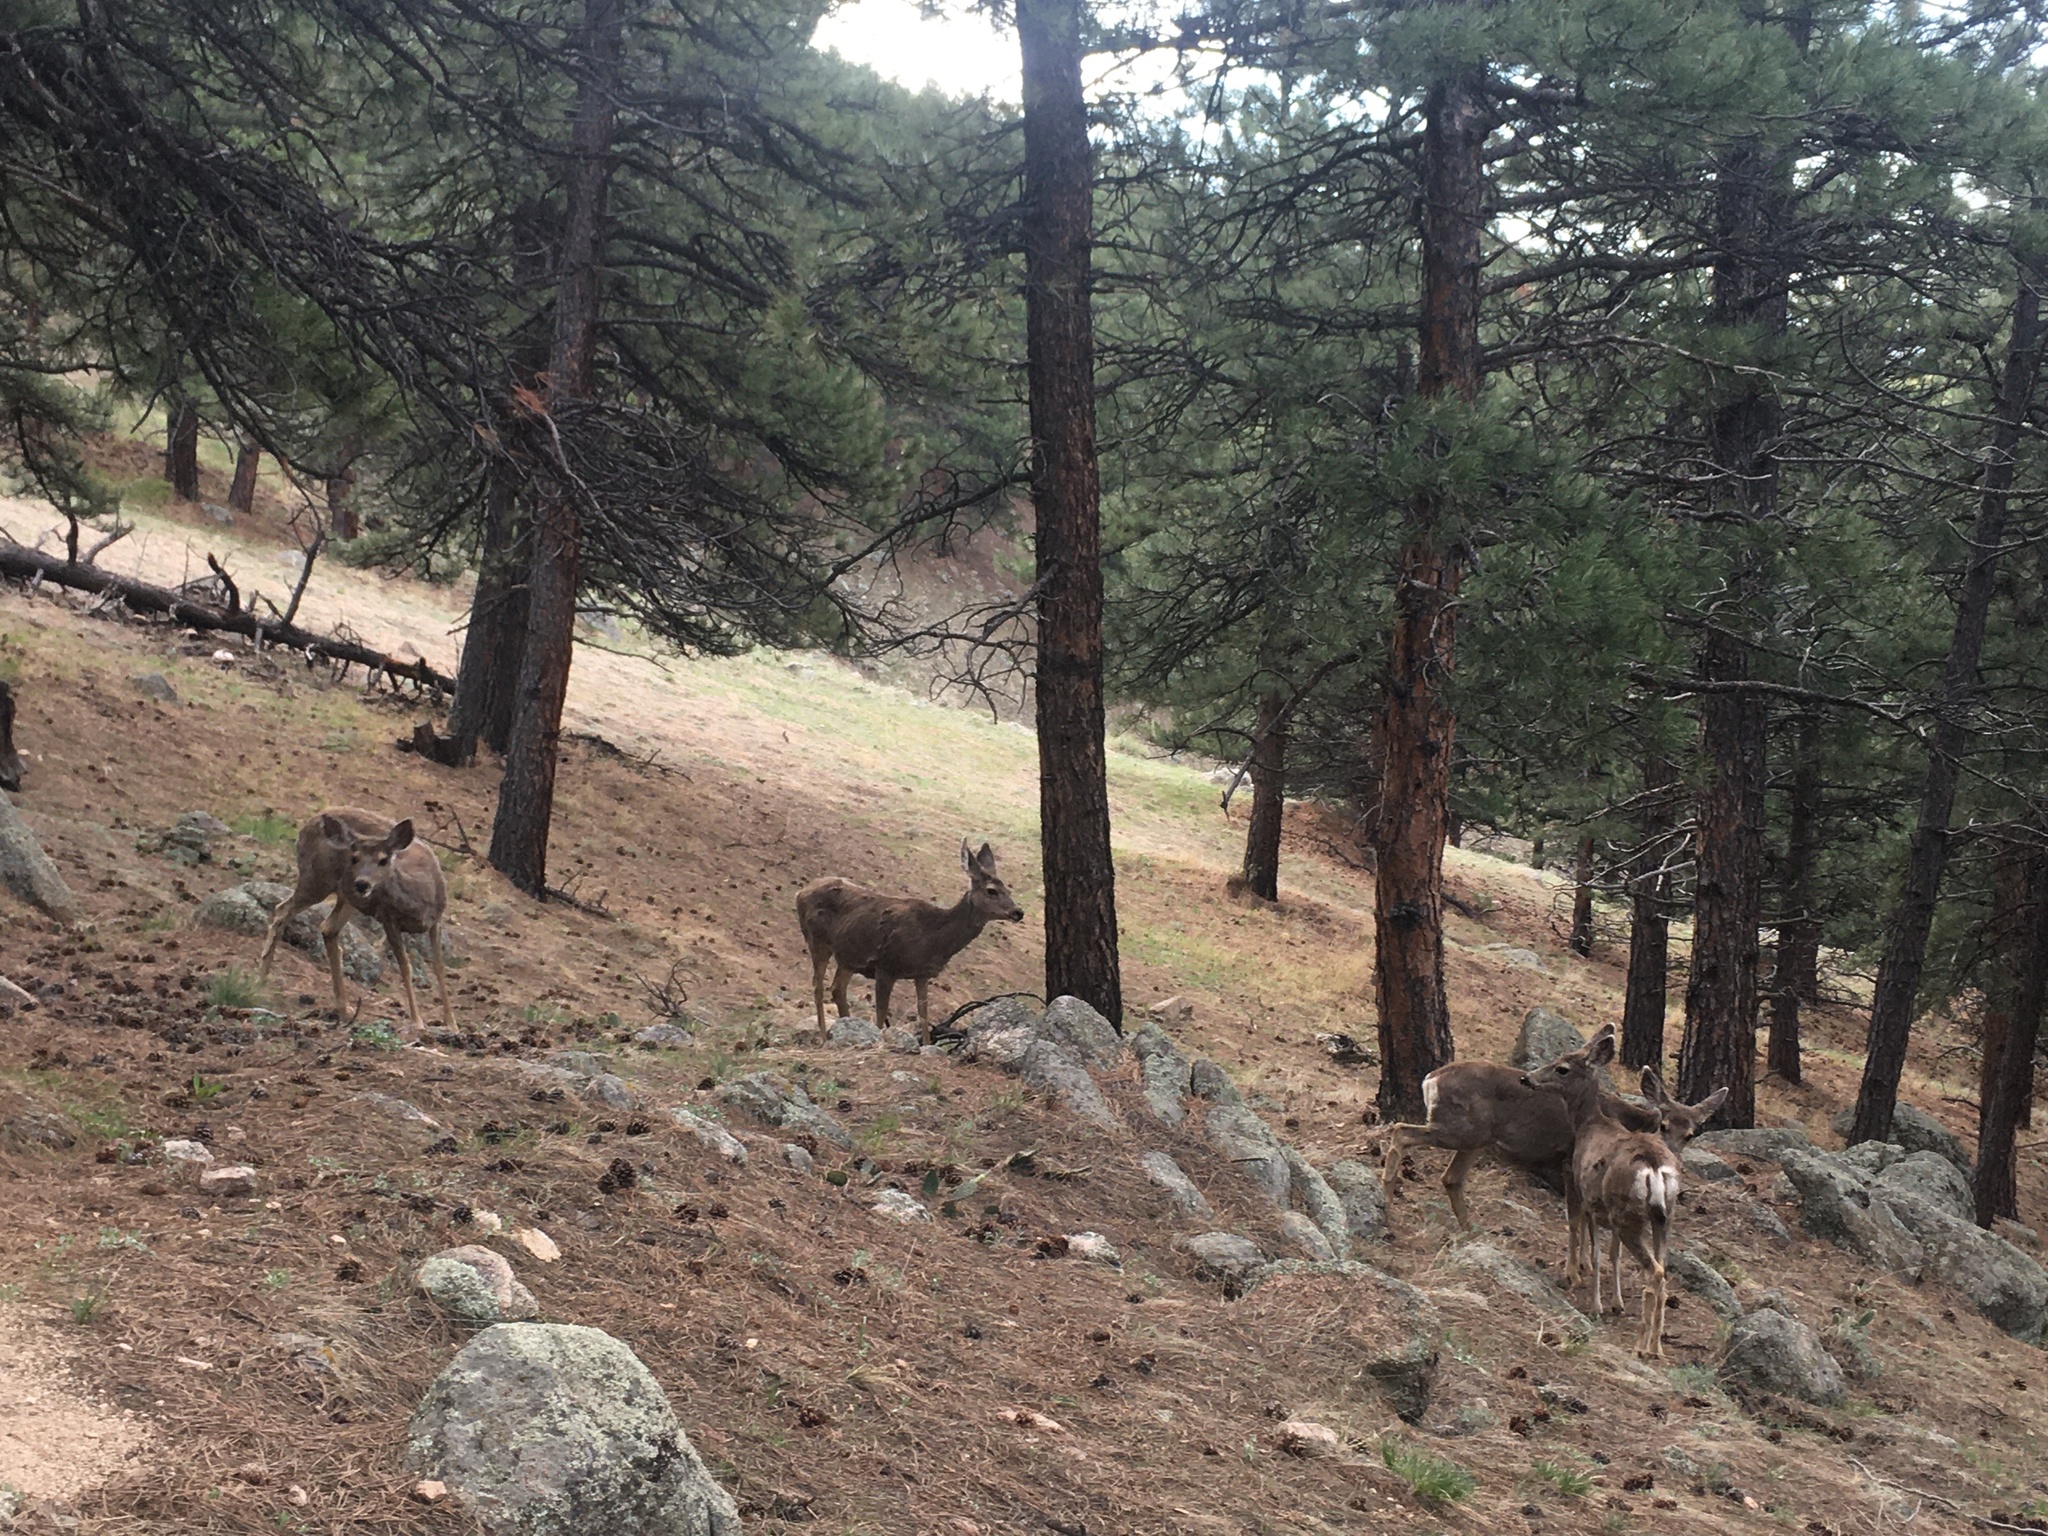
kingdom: Animalia
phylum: Chordata
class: Mammalia
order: Artiodactyla
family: Cervidae
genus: Odocoileus
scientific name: Odocoileus hemionus
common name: Mule deer
